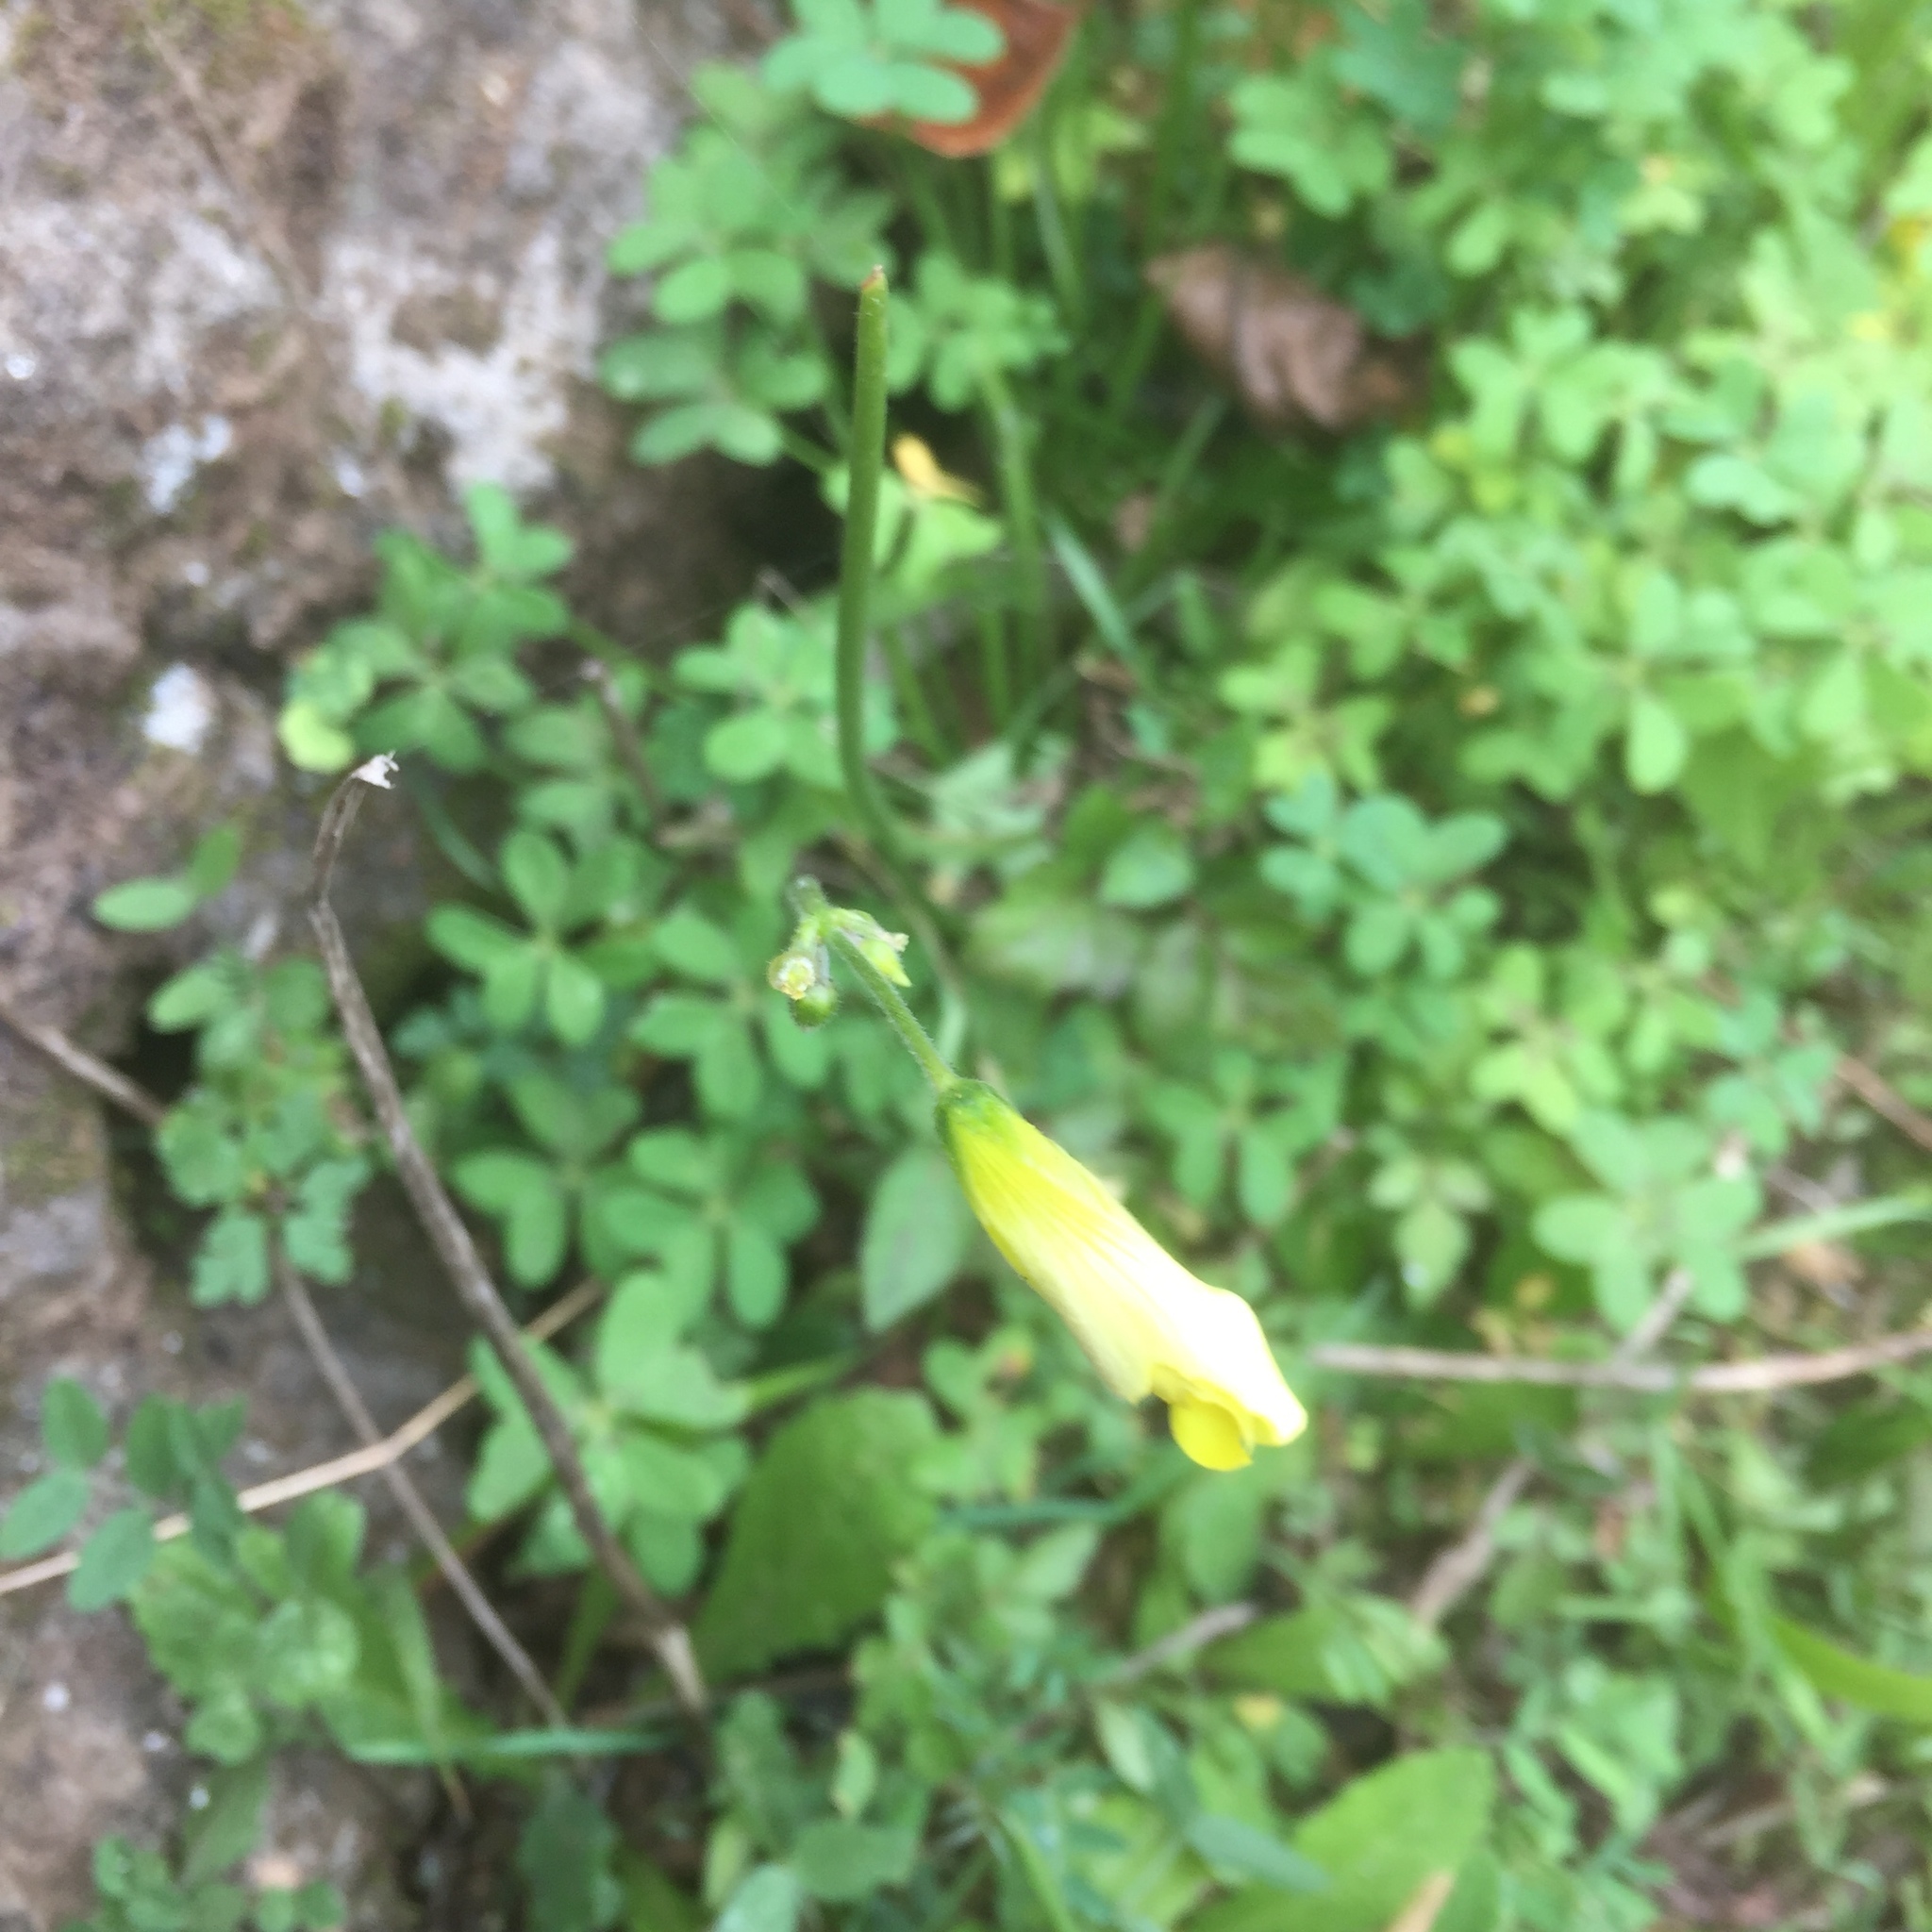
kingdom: Plantae
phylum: Tracheophyta
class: Magnoliopsida
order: Oxalidales
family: Oxalidaceae
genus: Oxalis
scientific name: Oxalis pes-caprae
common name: Bermuda-buttercup
